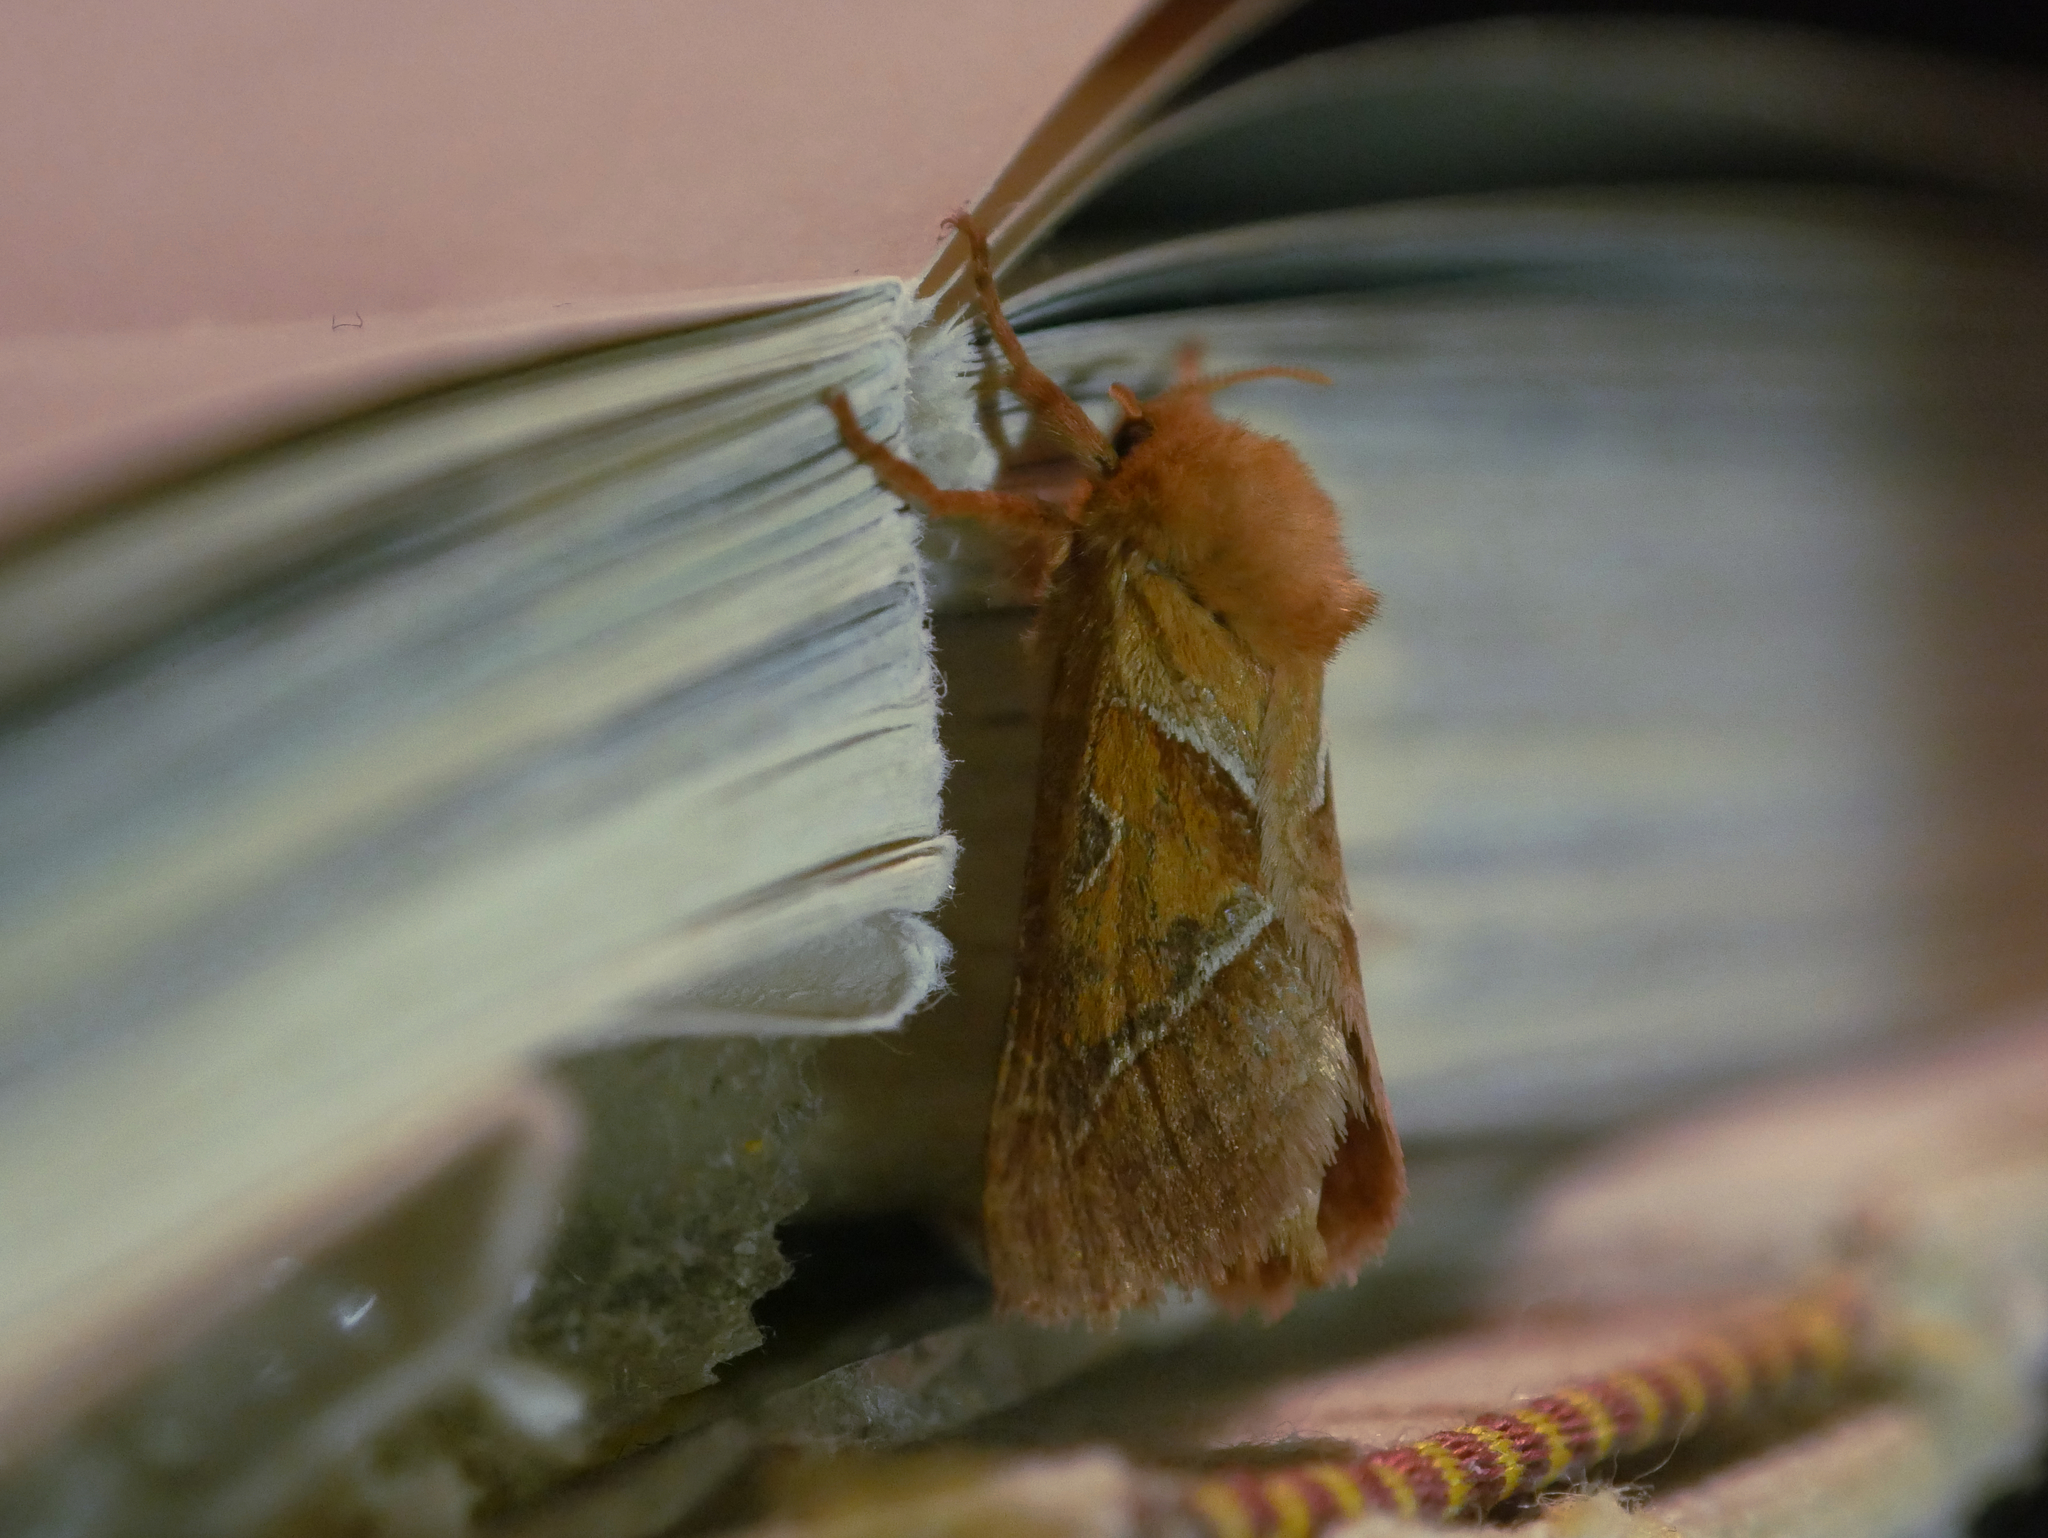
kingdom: Animalia
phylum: Arthropoda
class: Insecta
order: Lepidoptera
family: Hepialidae
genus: Triodia
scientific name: Triodia sylvina
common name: Orange swift
